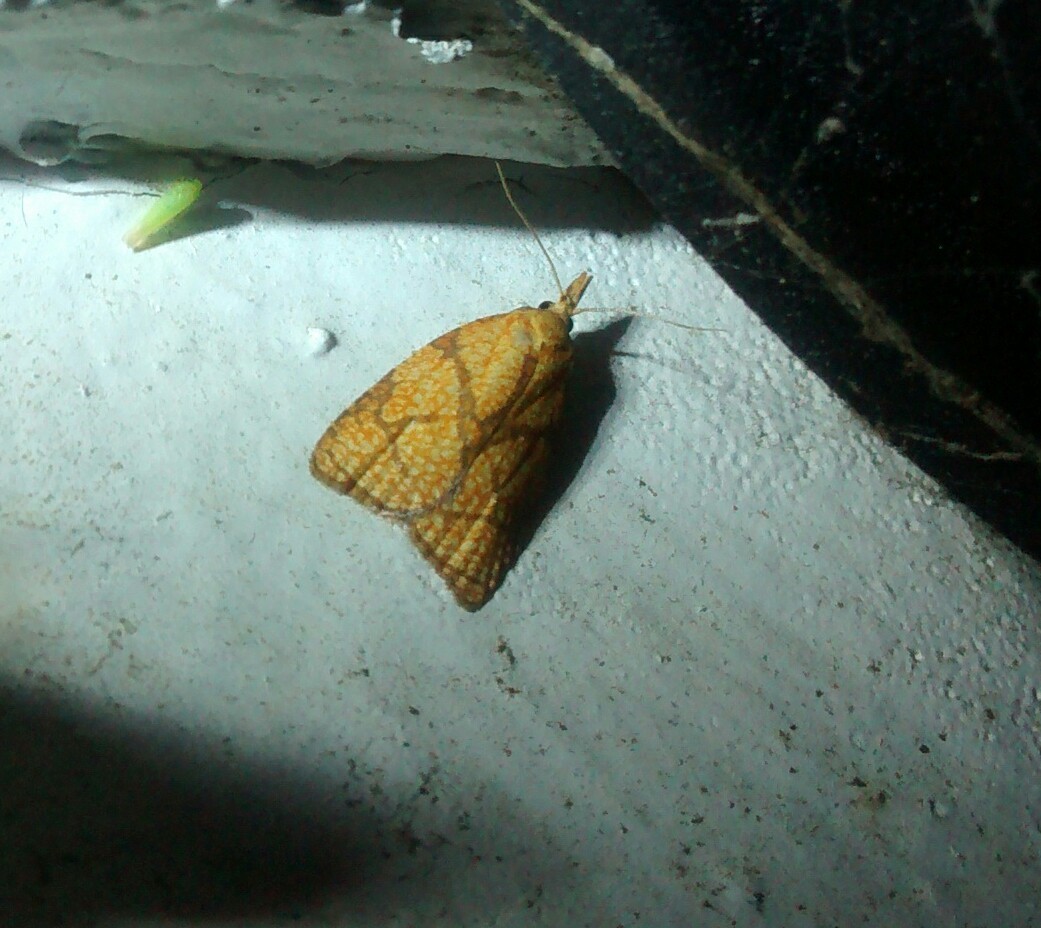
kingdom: Animalia
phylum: Arthropoda
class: Insecta
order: Lepidoptera
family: Tortricidae
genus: Cenopis
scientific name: Cenopis reticulatana
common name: Reticulated fruitworm moth
